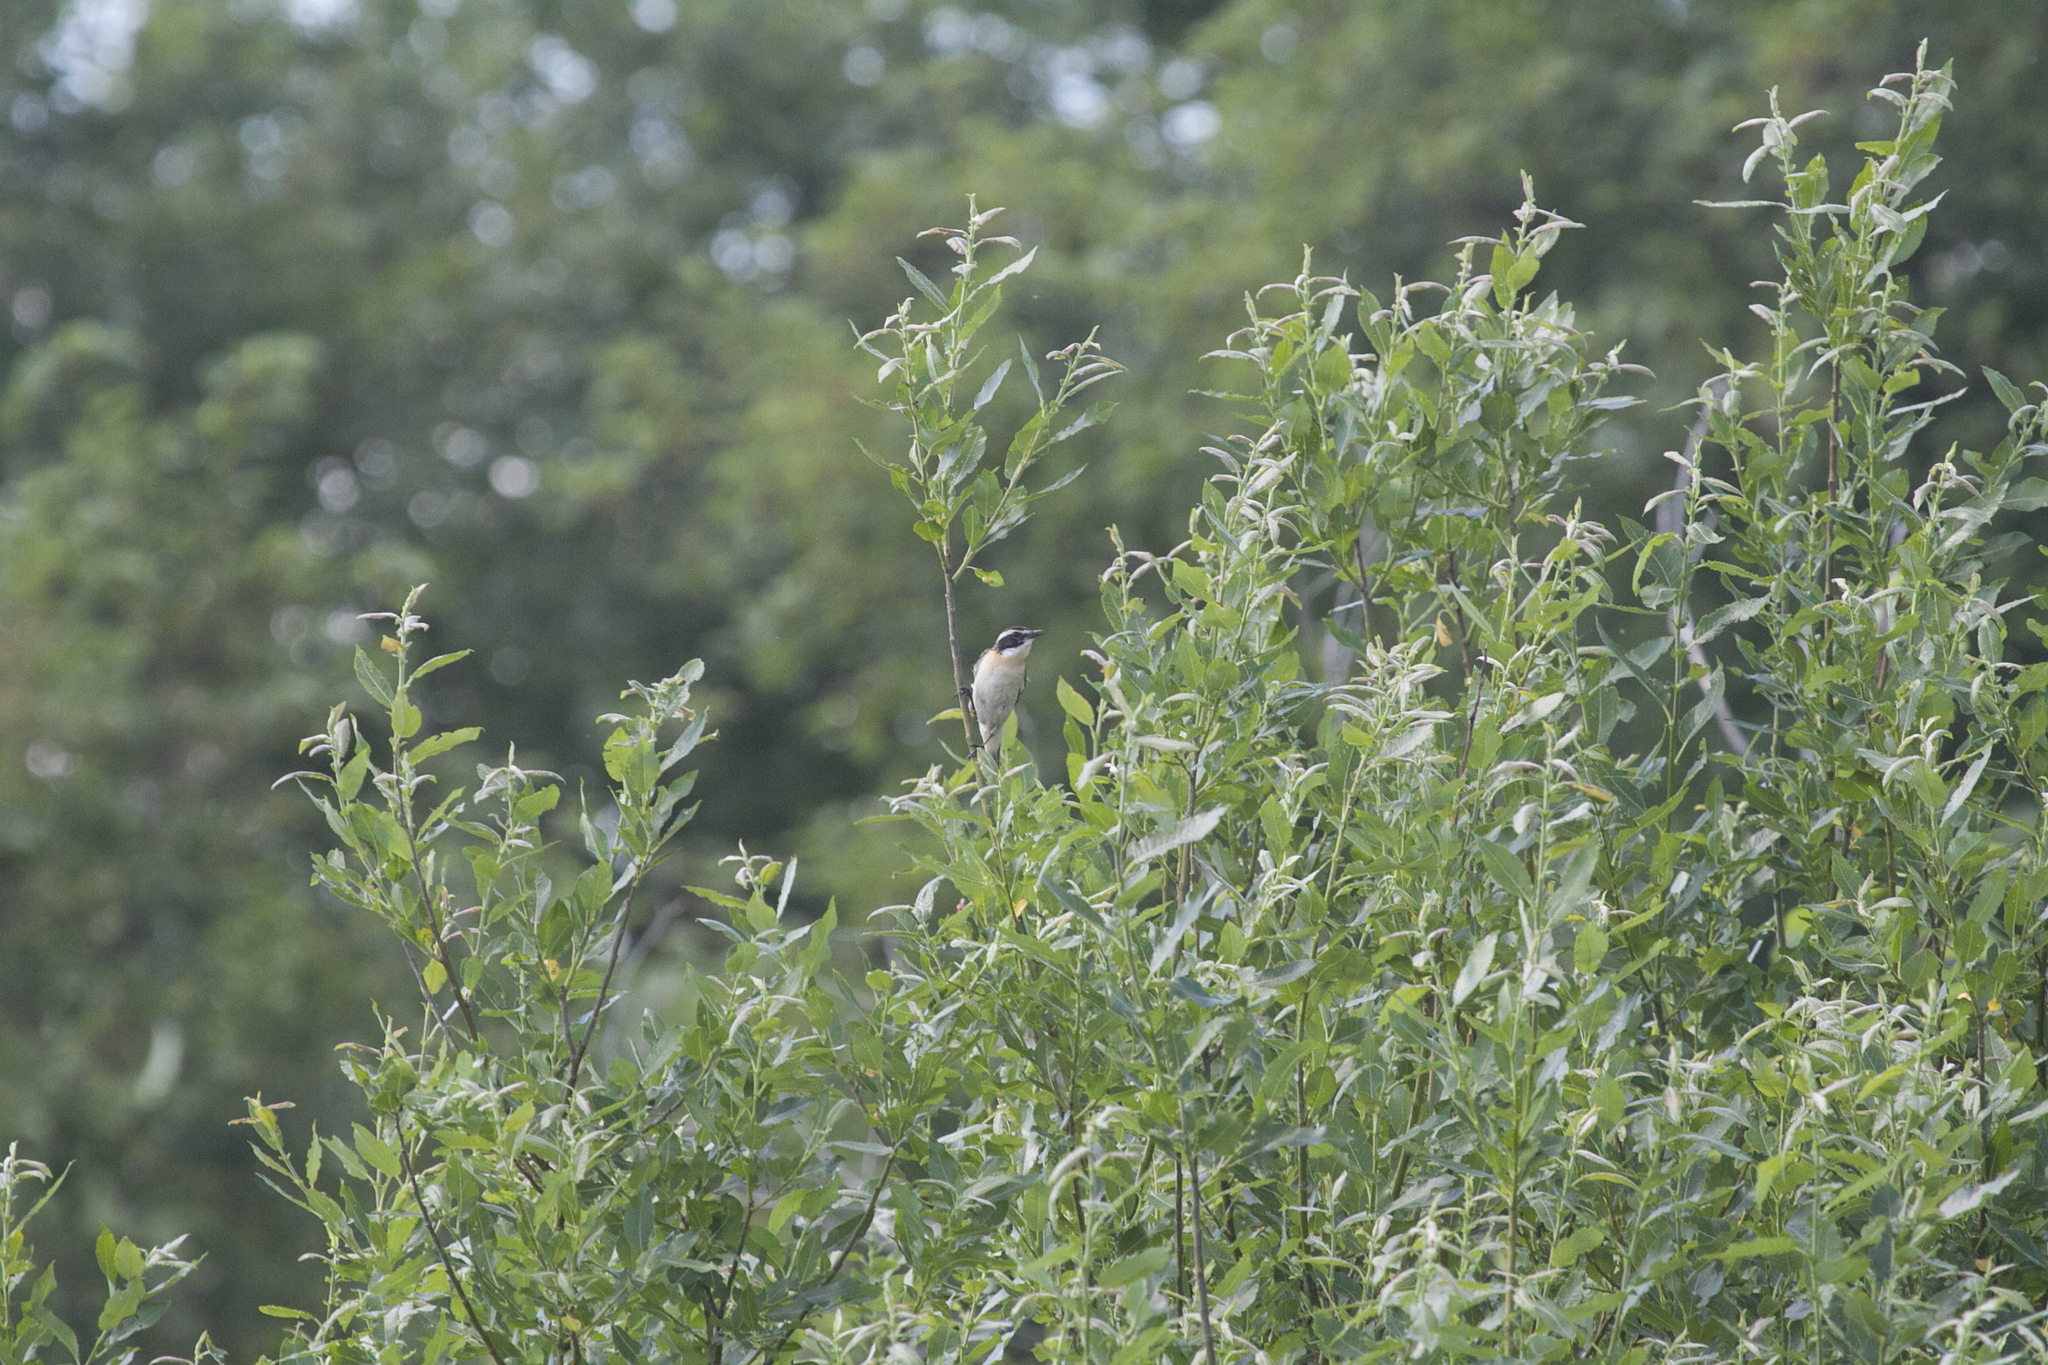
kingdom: Animalia
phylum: Chordata
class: Aves
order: Passeriformes
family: Muscicapidae
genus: Saxicola
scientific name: Saxicola rubetra
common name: Whinchat
